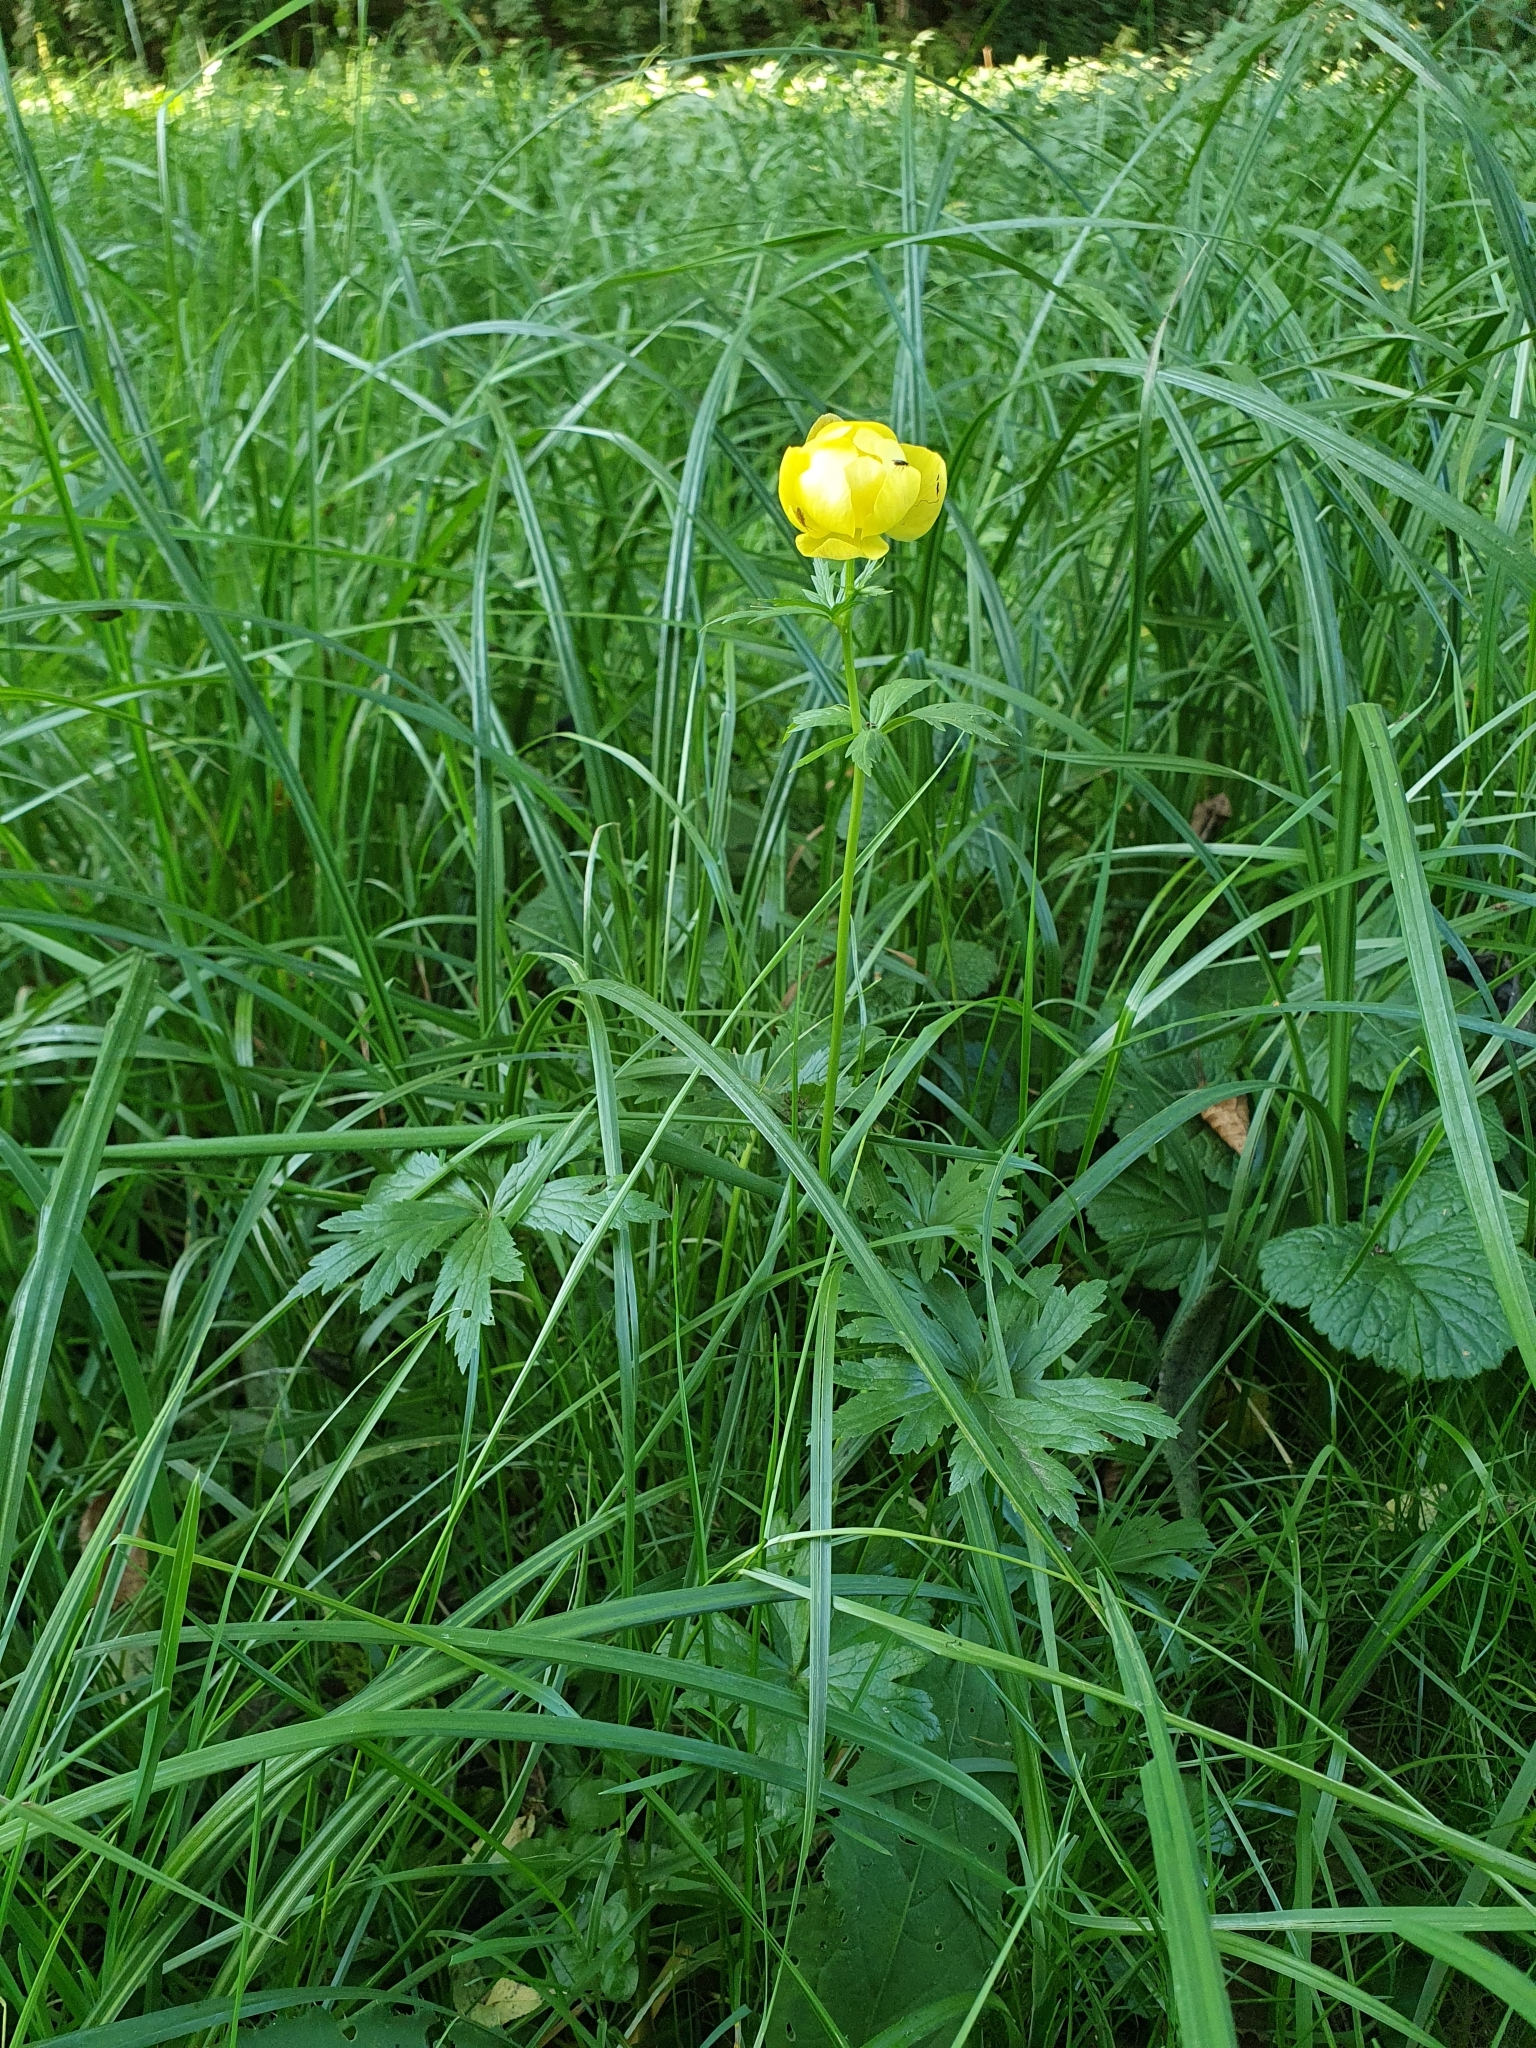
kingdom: Plantae
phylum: Tracheophyta
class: Magnoliopsida
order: Ranunculales
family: Ranunculaceae
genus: Trollius
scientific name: Trollius europaeus
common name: European globeflower
